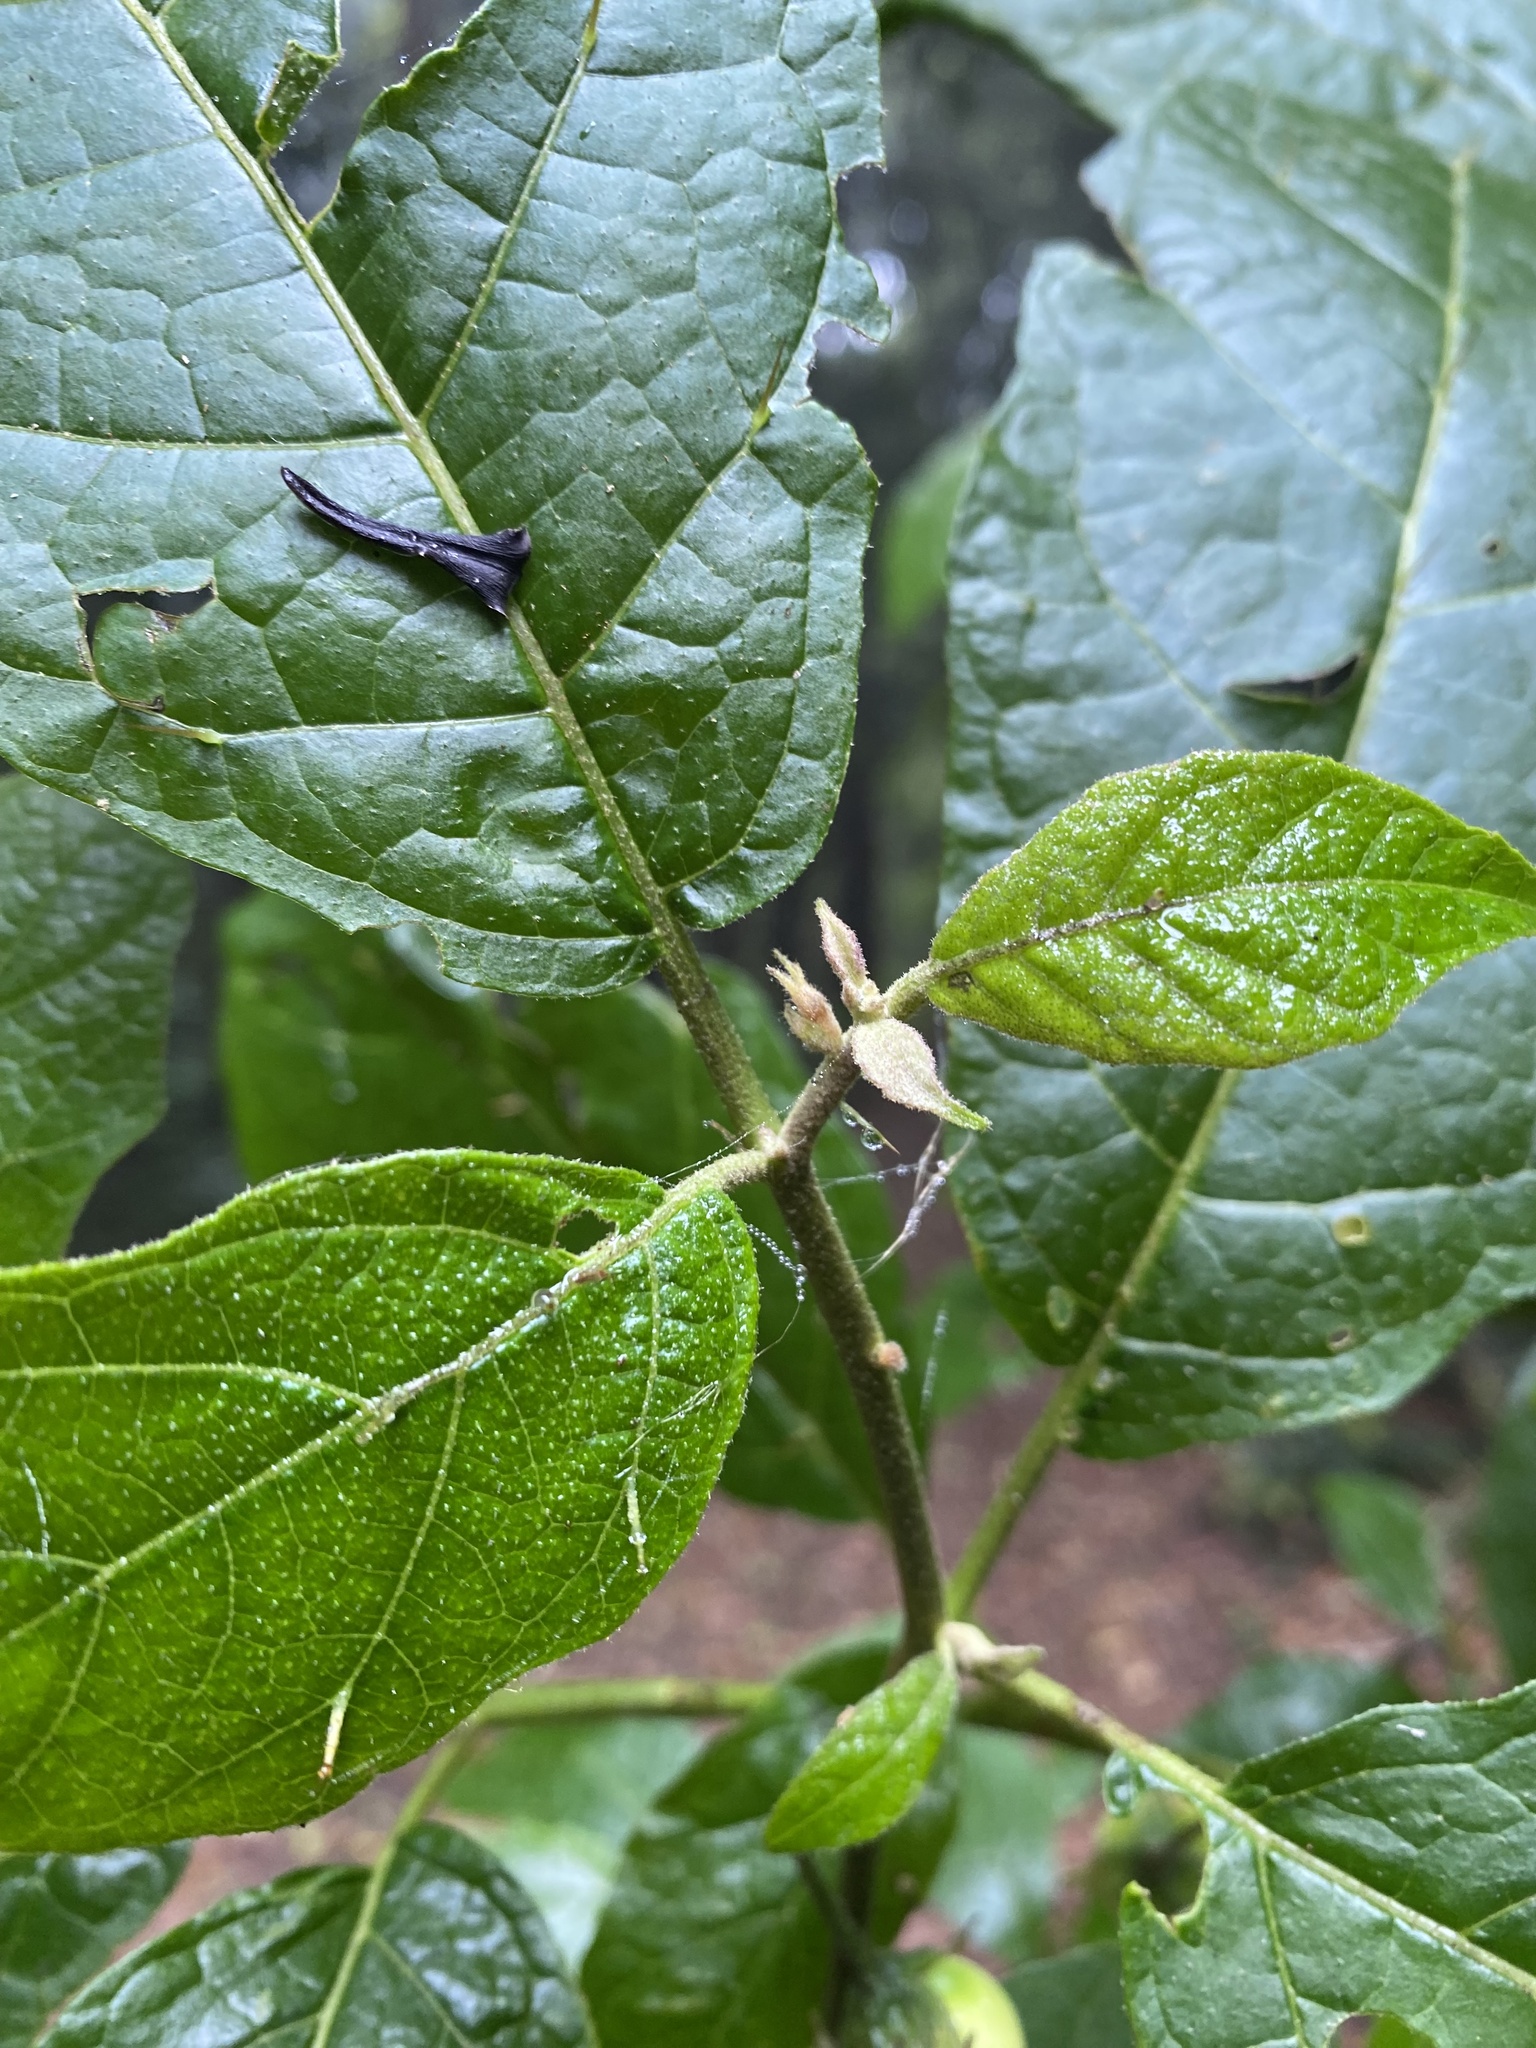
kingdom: Plantae
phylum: Tracheophyta
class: Magnoliopsida
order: Solanales
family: Solanaceae
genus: Solanum
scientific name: Solanum rixosum
